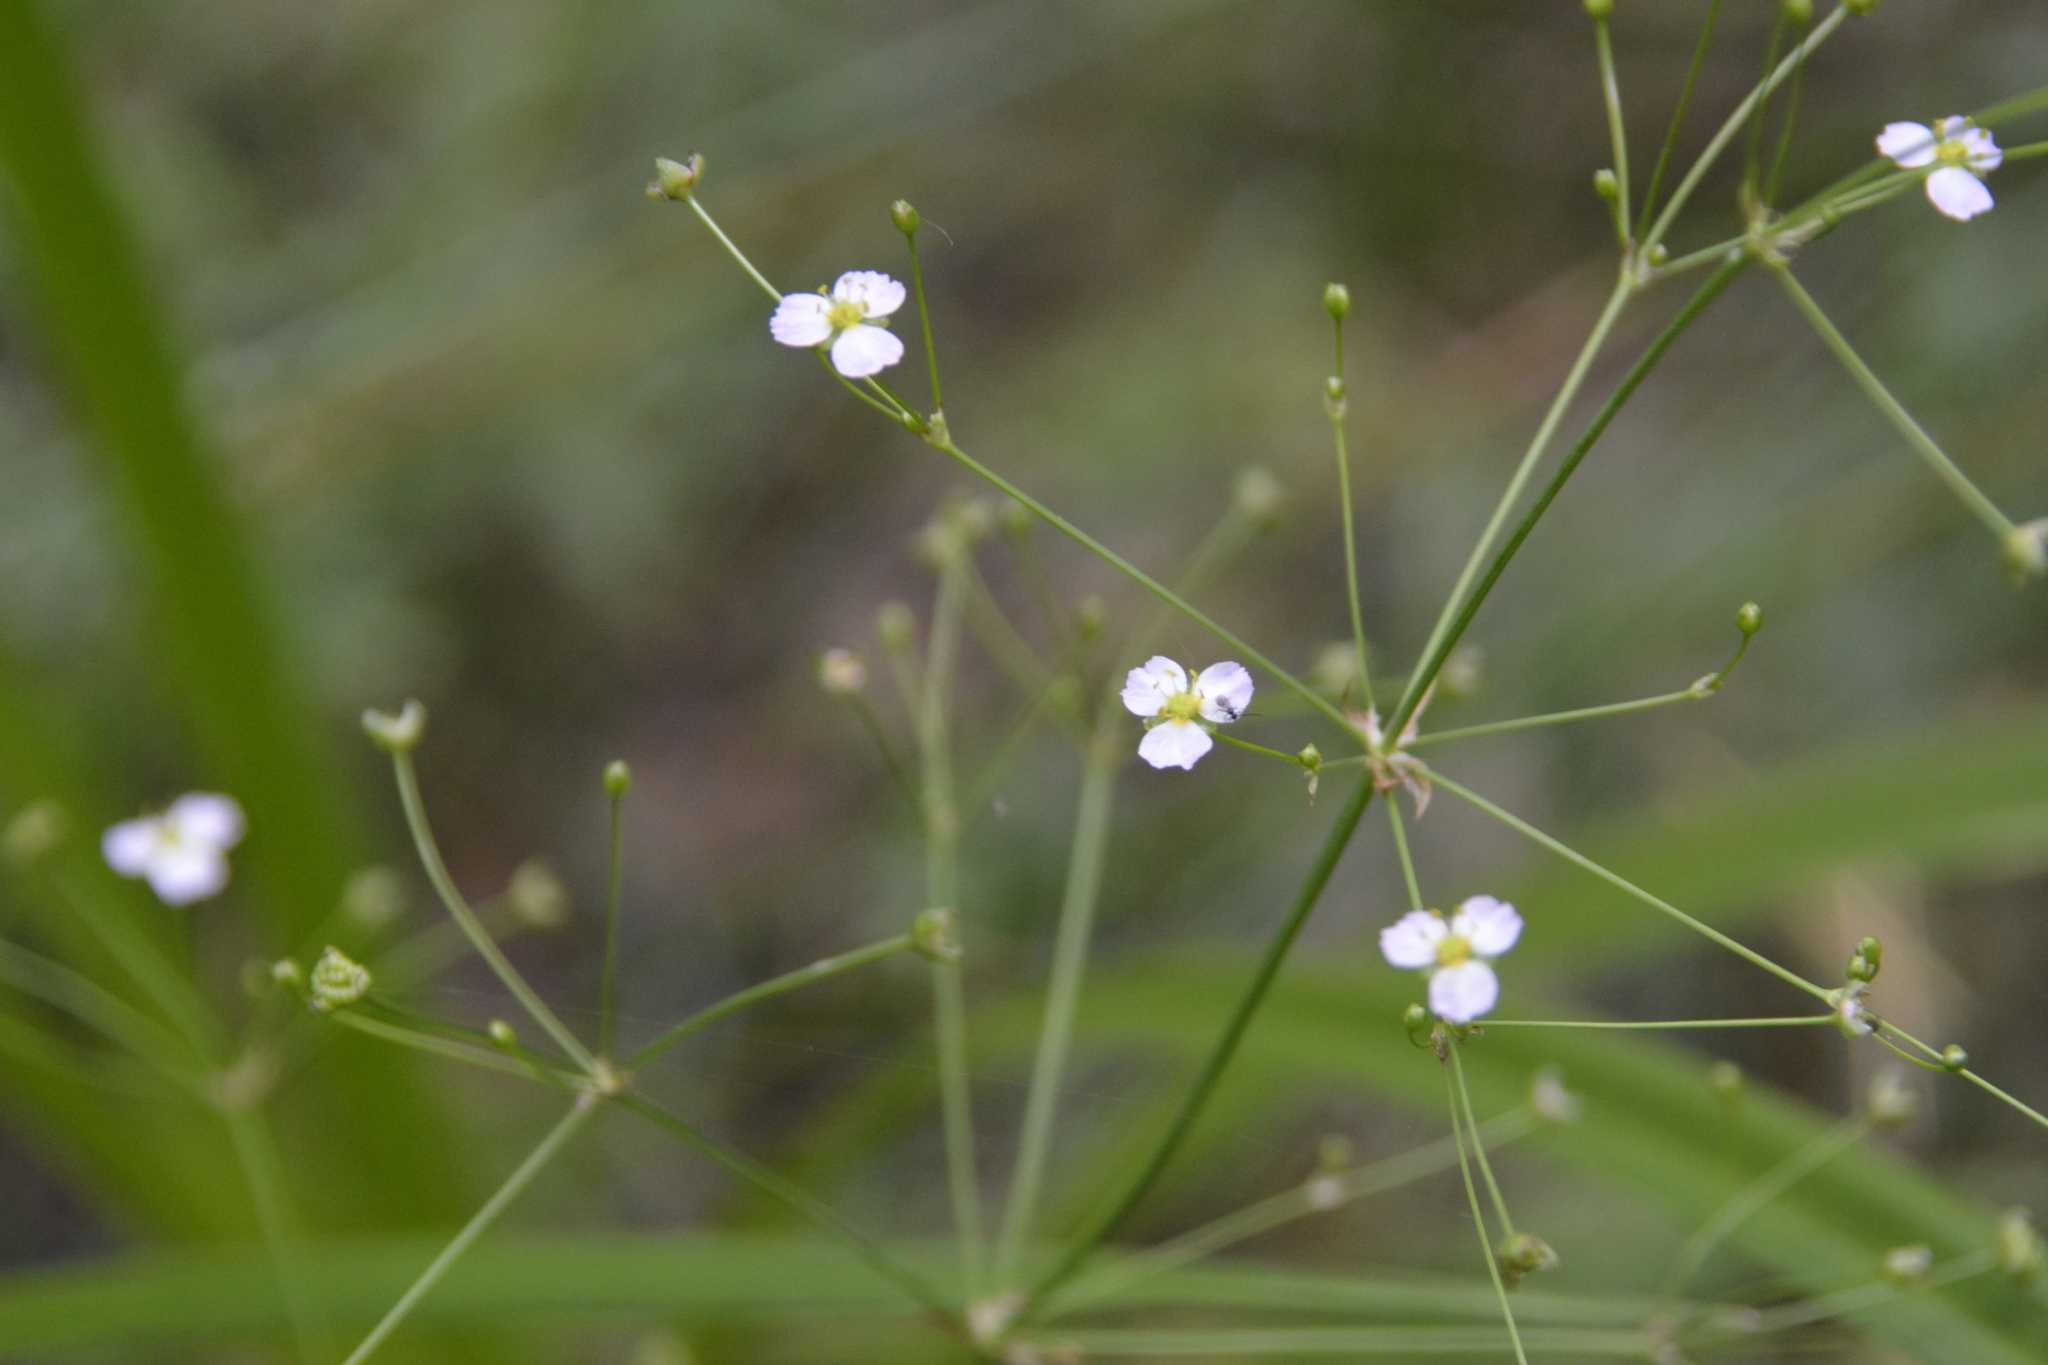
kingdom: Plantae
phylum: Tracheophyta
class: Liliopsida
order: Alismatales
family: Alismataceae
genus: Alisma
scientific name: Alisma plantago-aquatica
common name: Water-plantain
